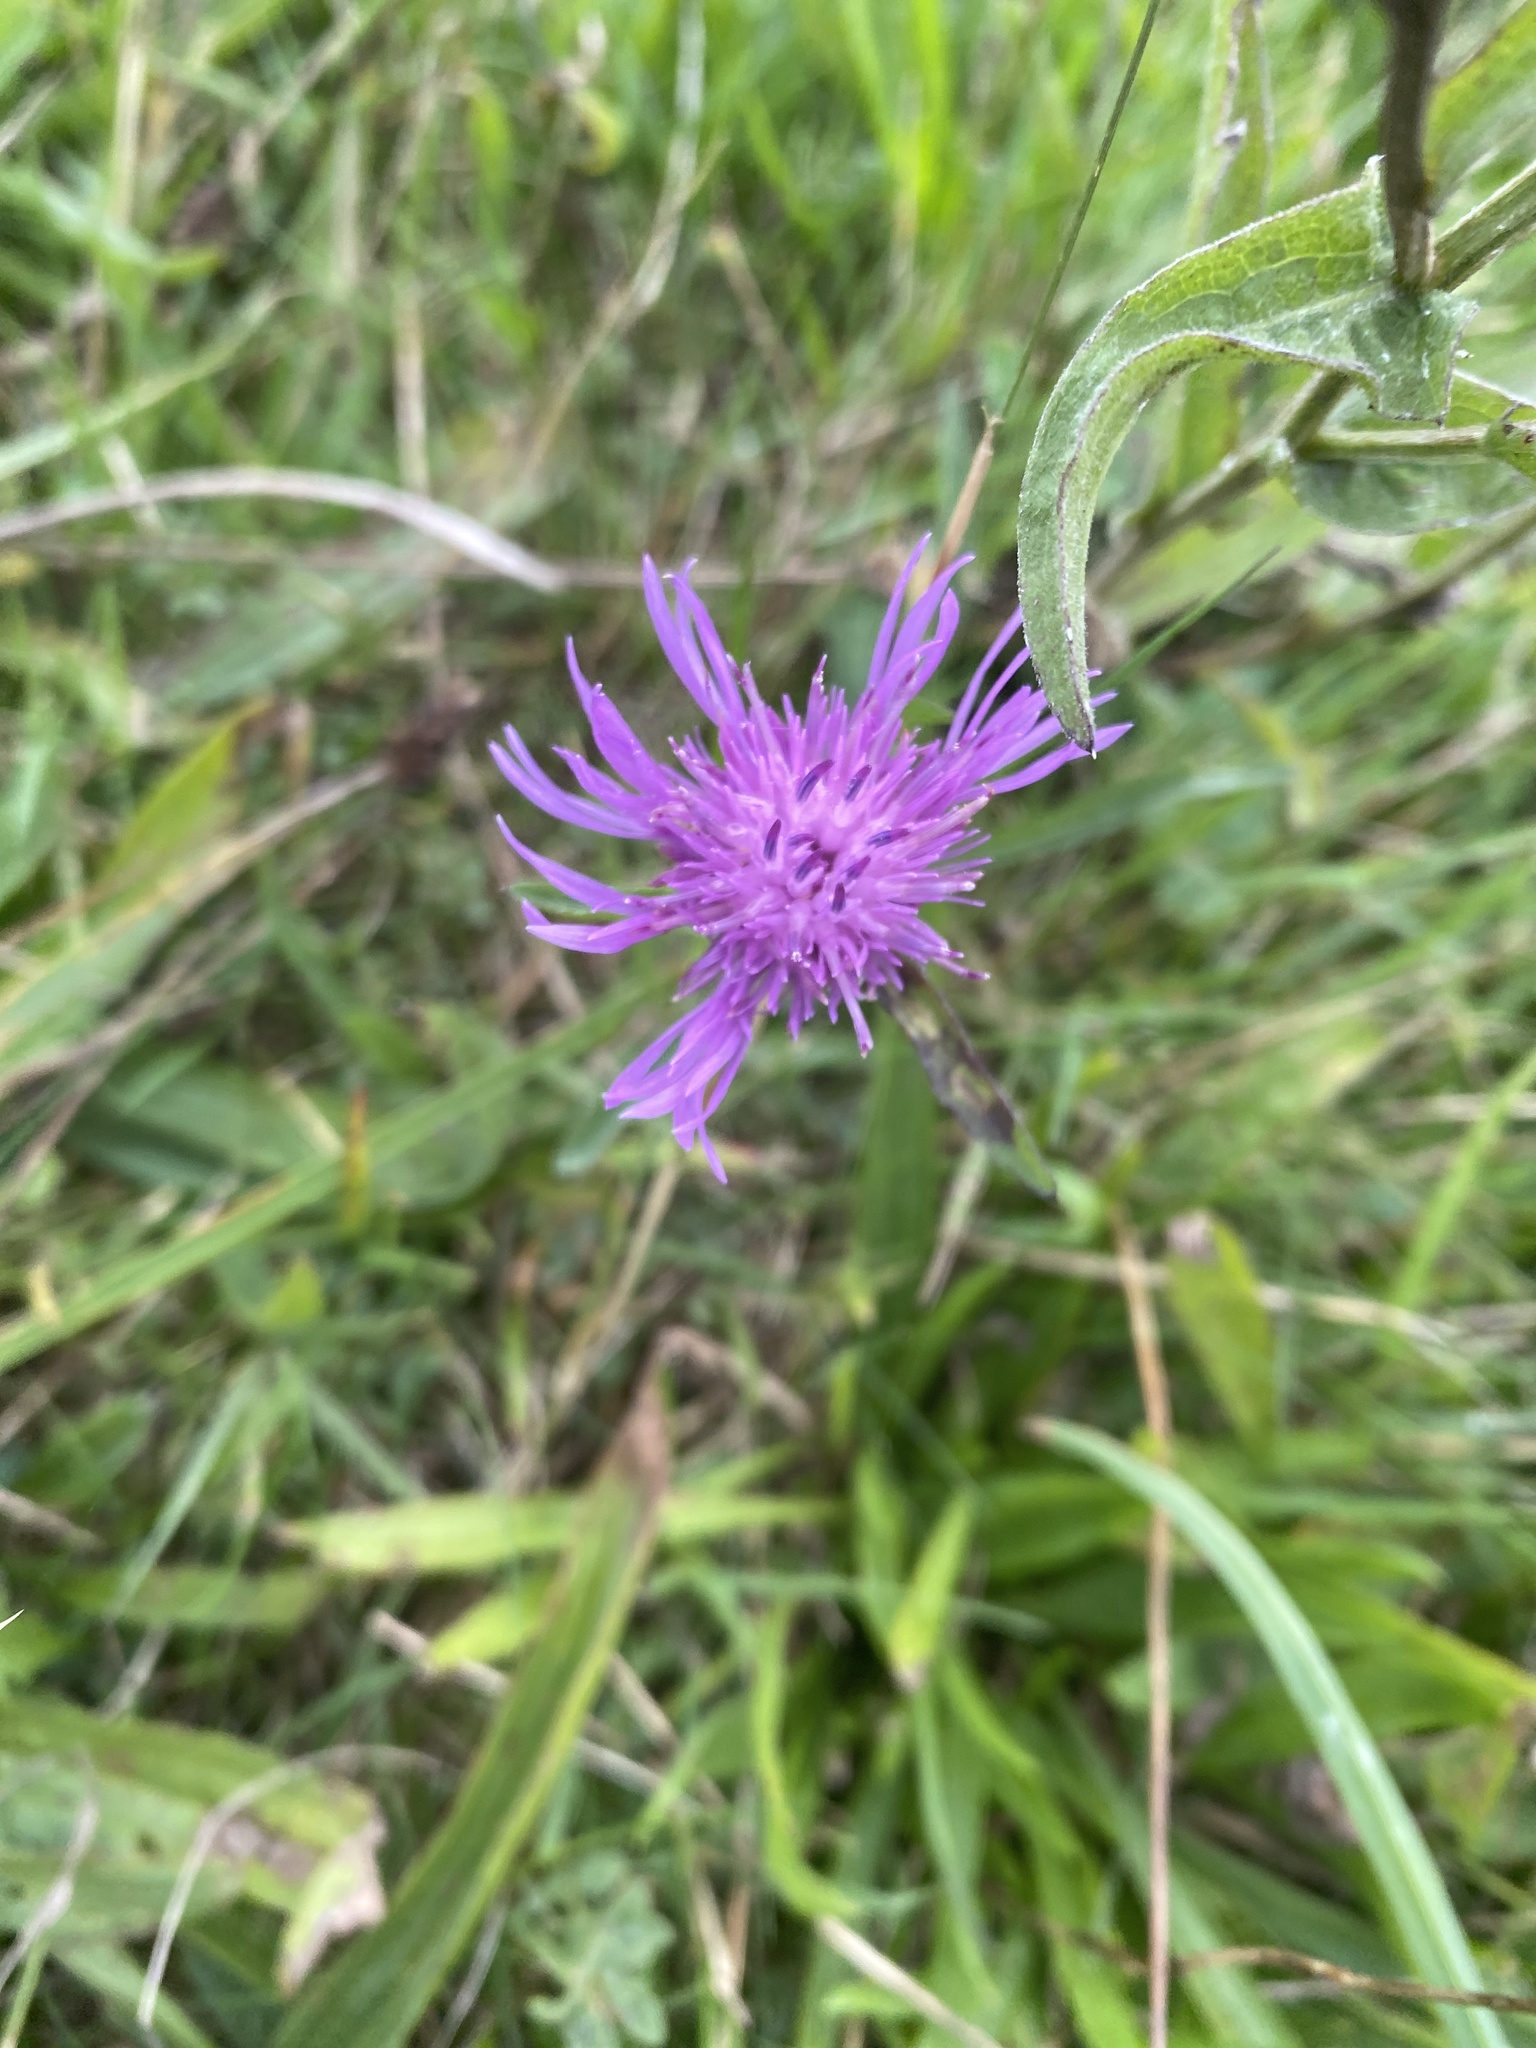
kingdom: Plantae
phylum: Tracheophyta
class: Magnoliopsida
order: Asterales
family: Asteraceae
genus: Centaurea
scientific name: Centaurea
